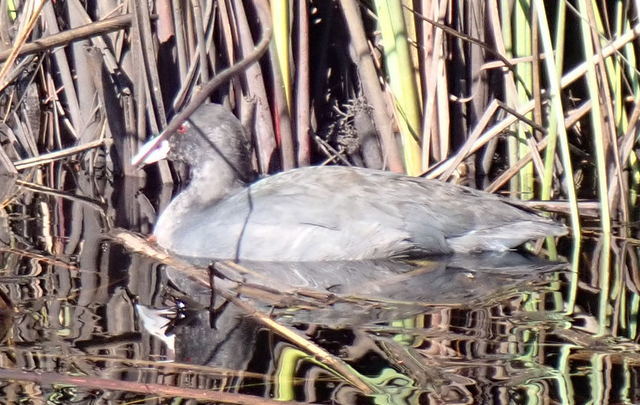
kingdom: Animalia
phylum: Chordata
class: Aves
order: Gruiformes
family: Rallidae
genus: Fulica
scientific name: Fulica americana
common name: American coot
